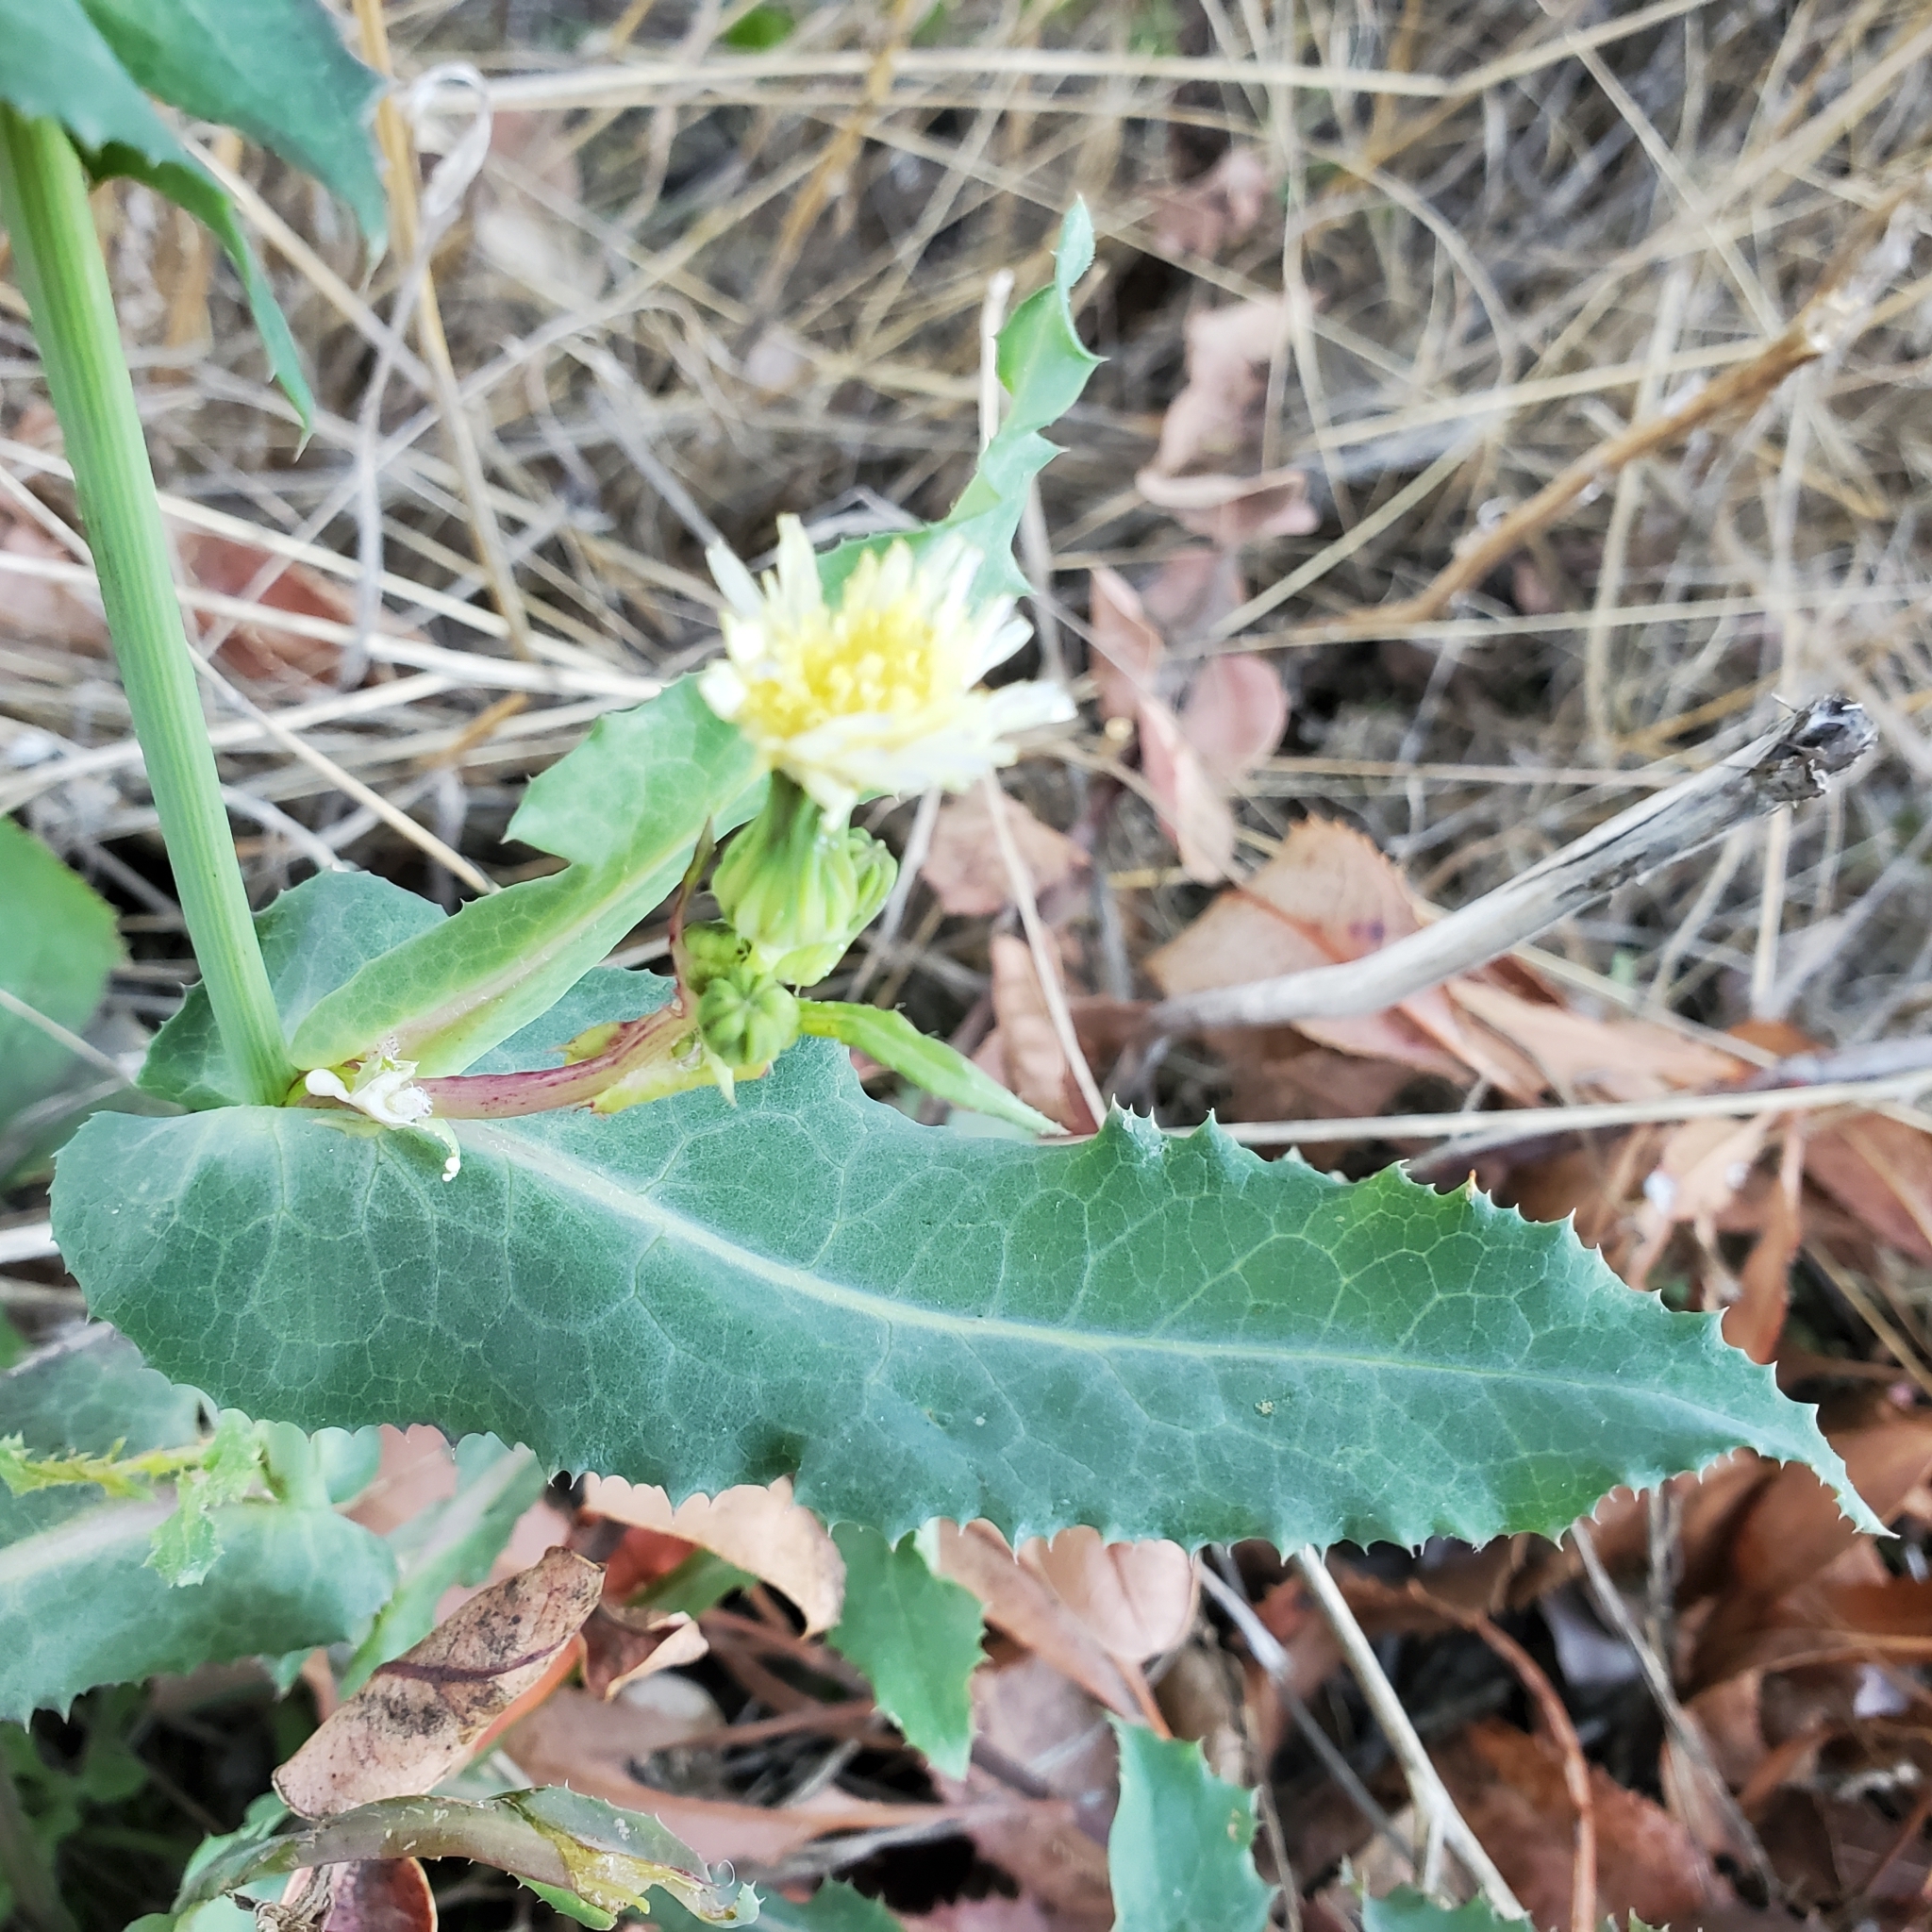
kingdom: Plantae
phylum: Tracheophyta
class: Magnoliopsida
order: Asterales
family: Asteraceae
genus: Sonchus
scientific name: Sonchus oleraceus
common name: Common sowthistle
